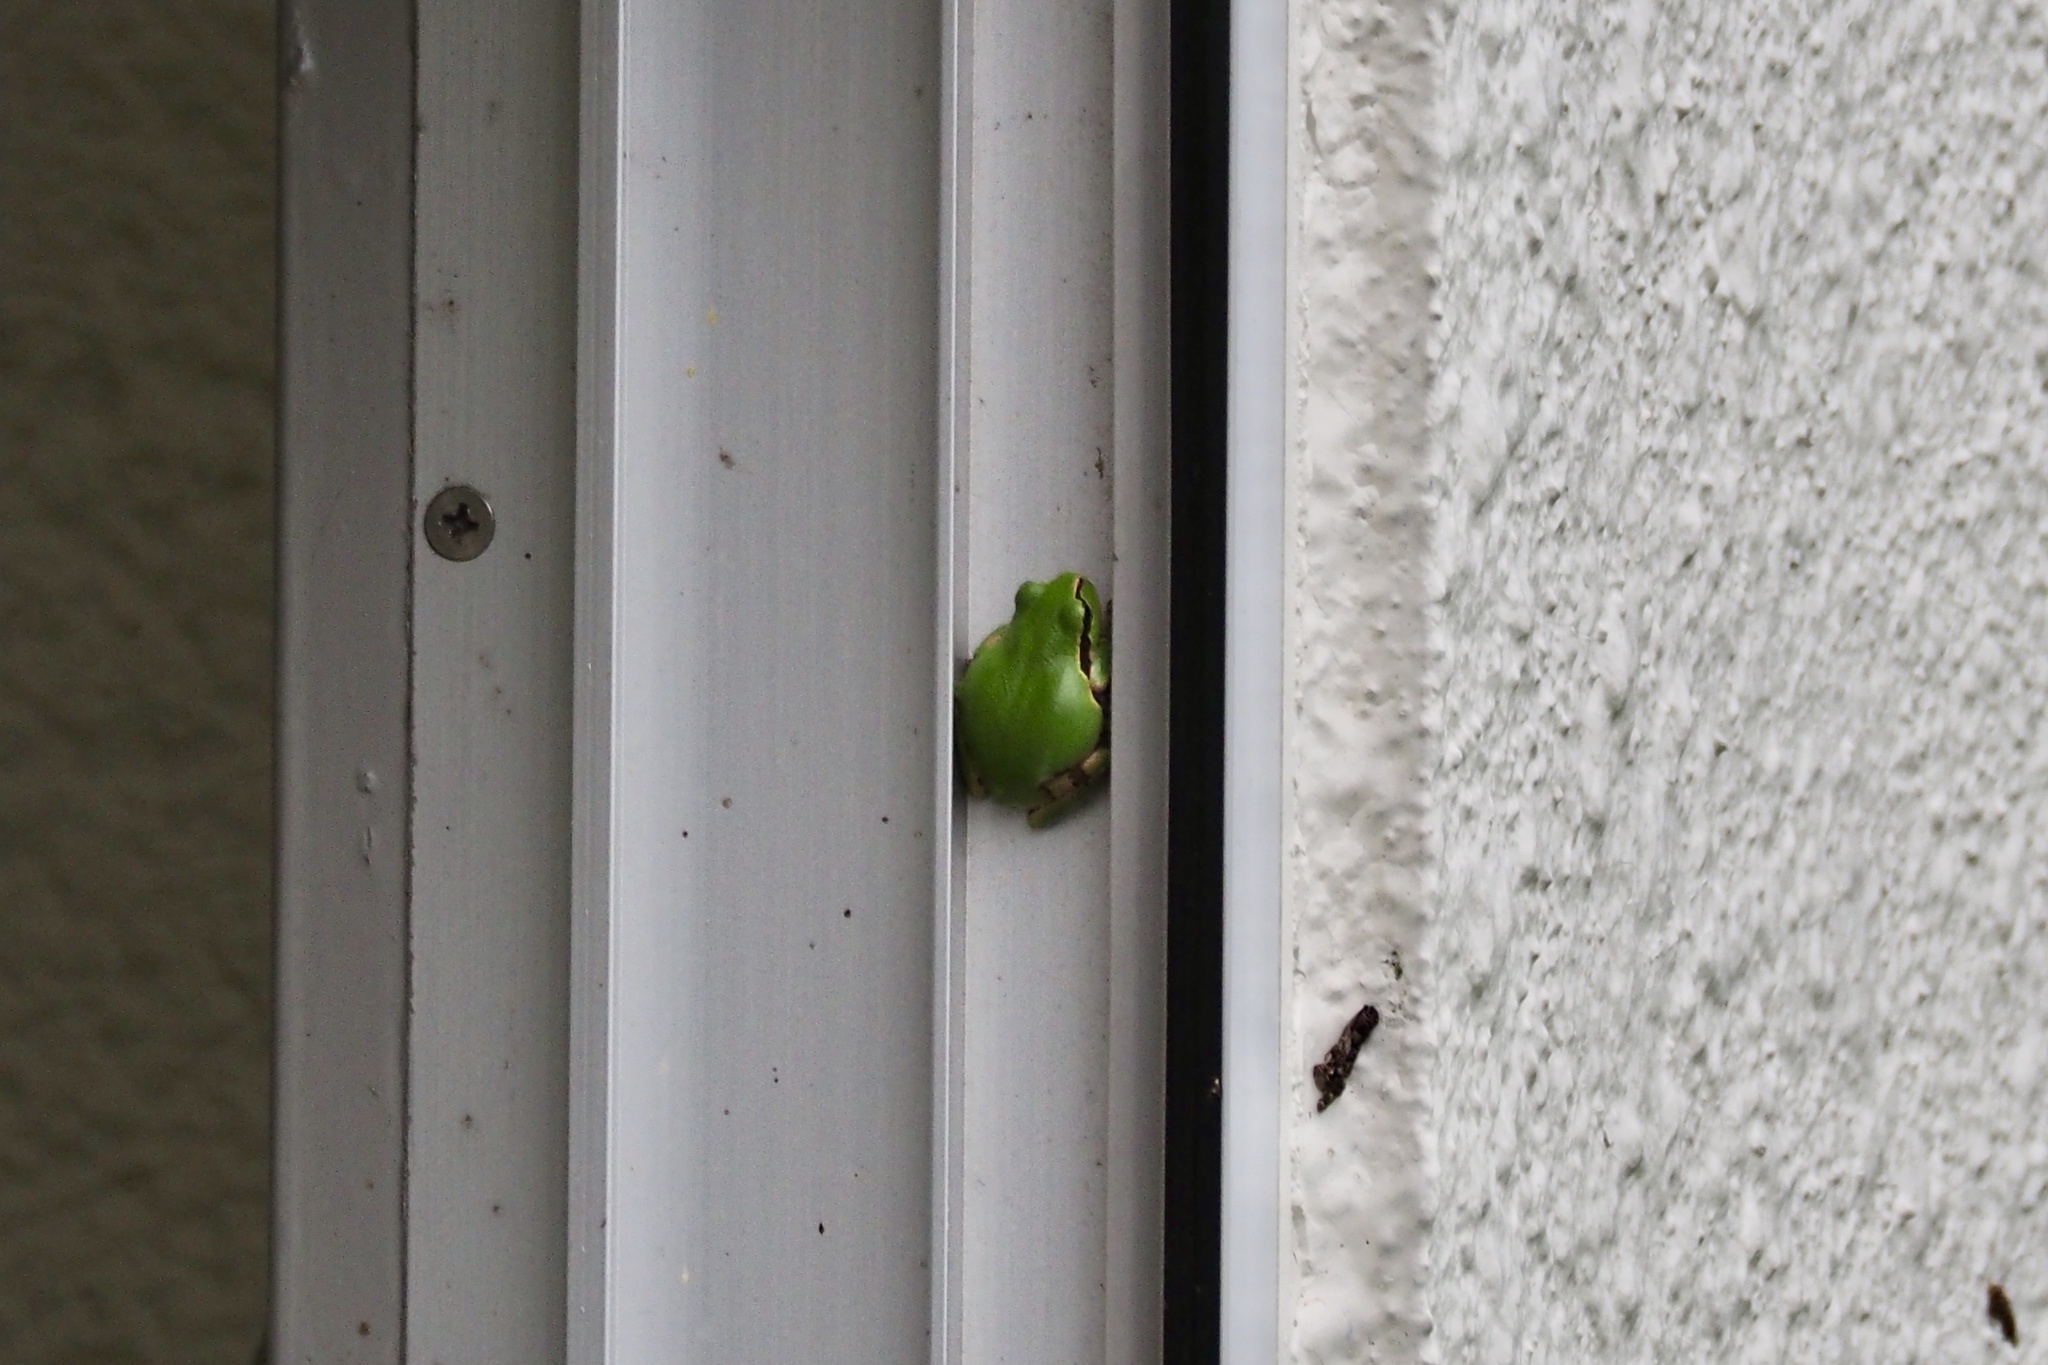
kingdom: Animalia
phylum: Chordata
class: Amphibia
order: Anura
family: Hylidae
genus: Dryophytes
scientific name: Dryophytes japonicus
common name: Japanese treefrog
